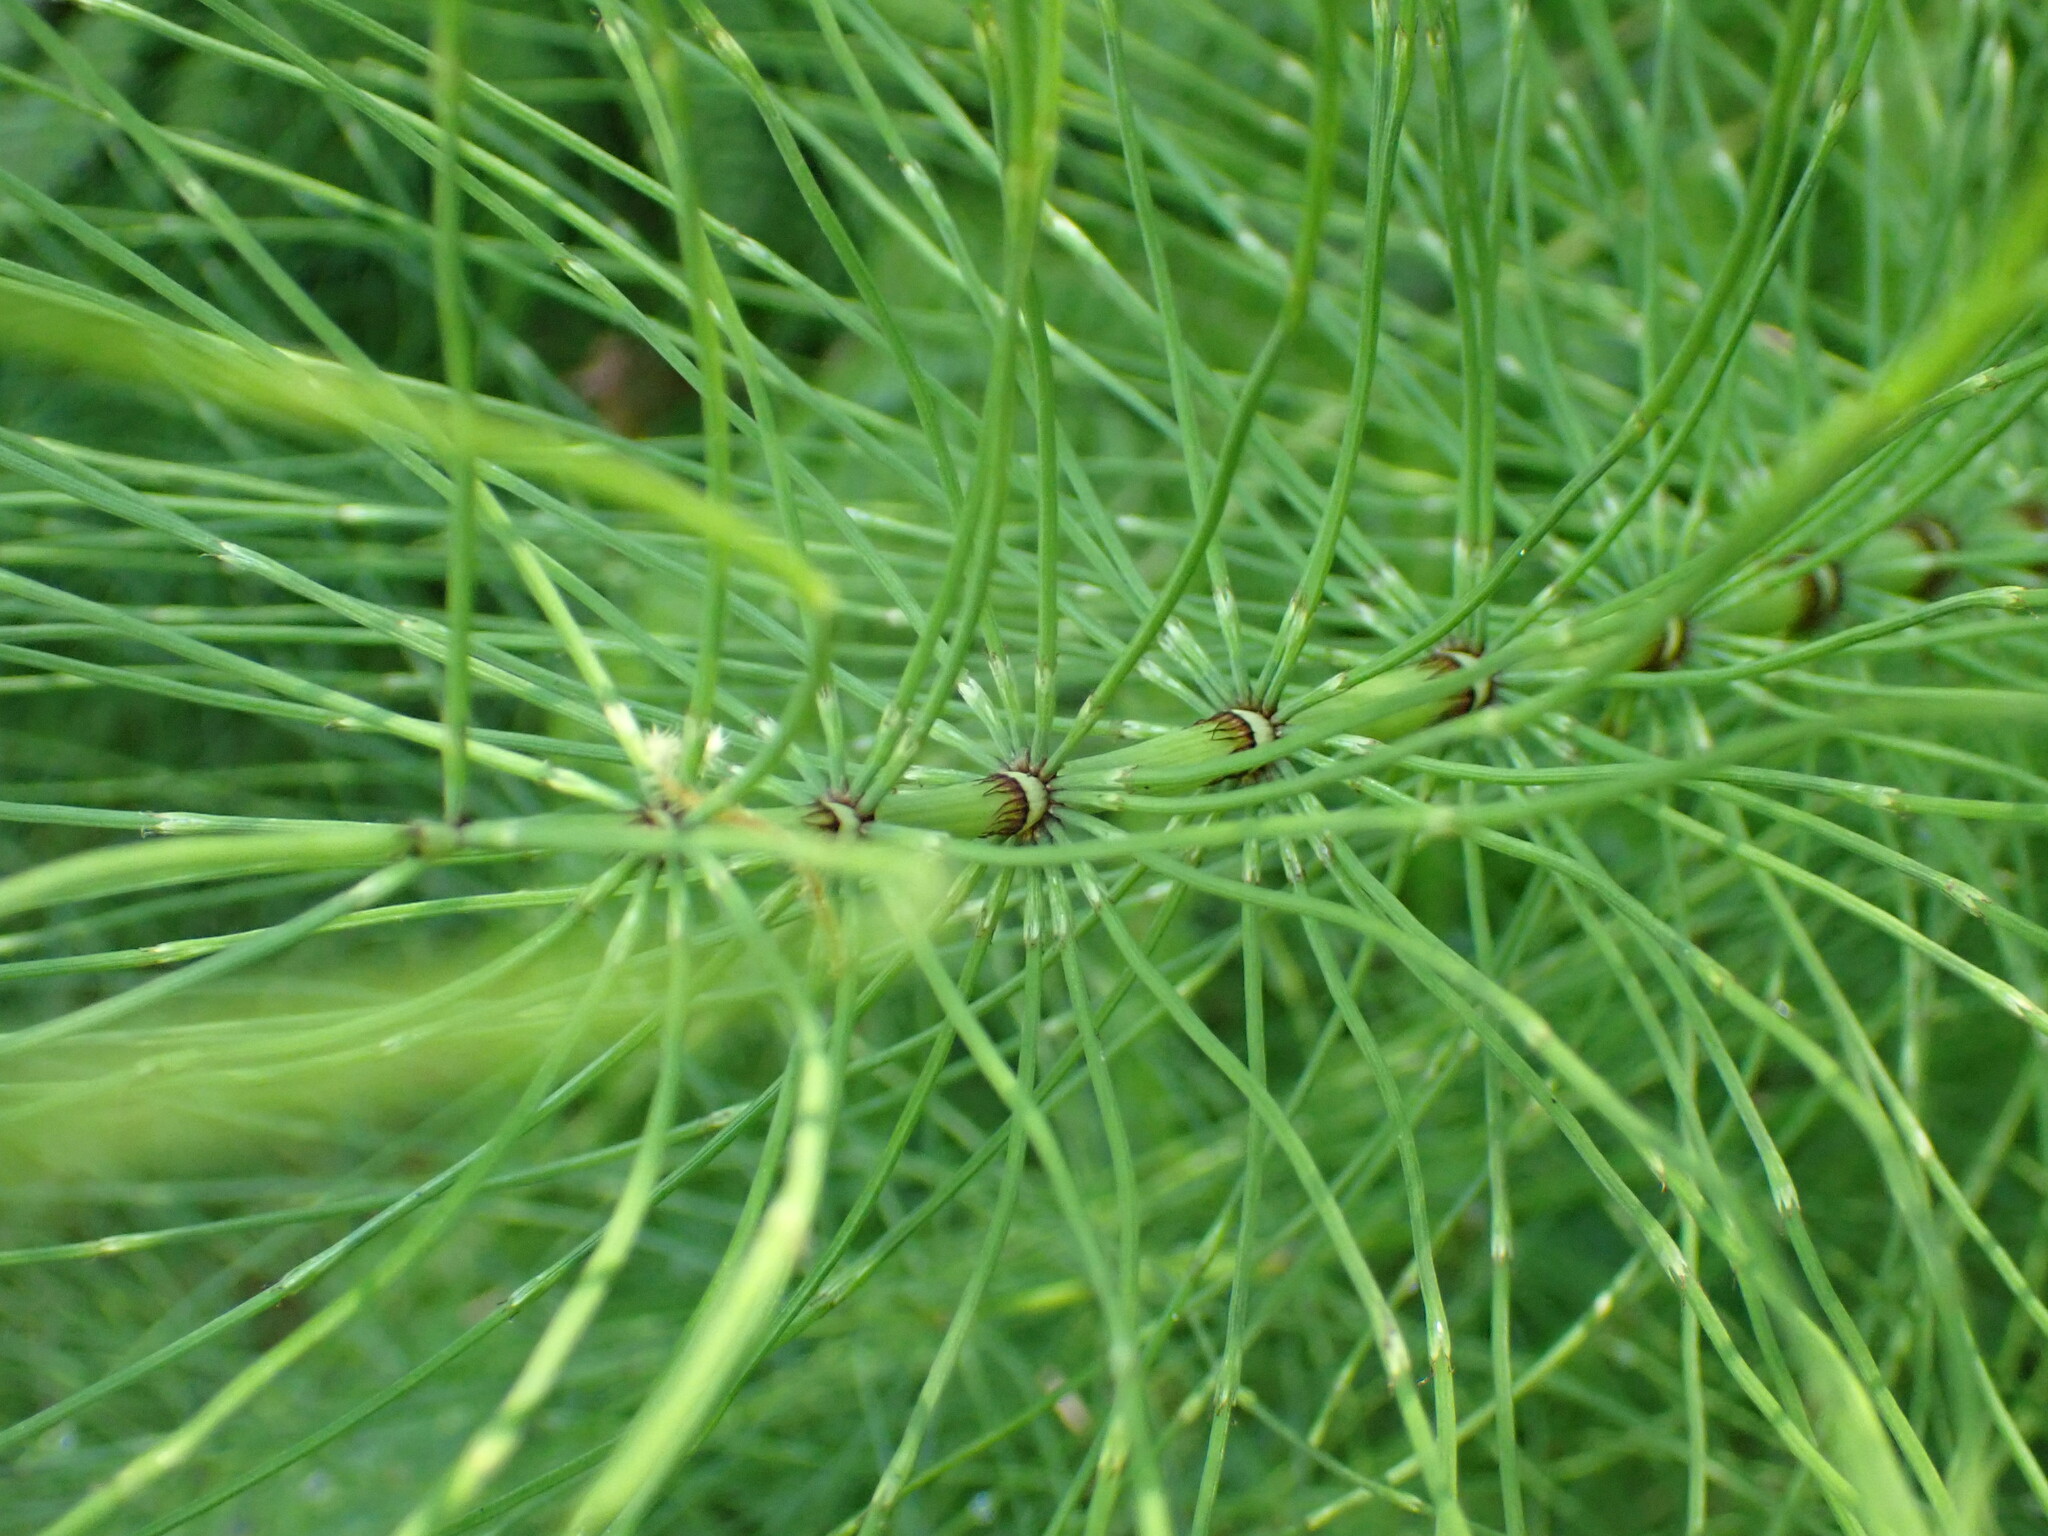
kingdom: Plantae
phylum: Tracheophyta
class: Polypodiopsida
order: Equisetales
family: Equisetaceae
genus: Equisetum
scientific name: Equisetum braunii
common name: Braun's horsetail
